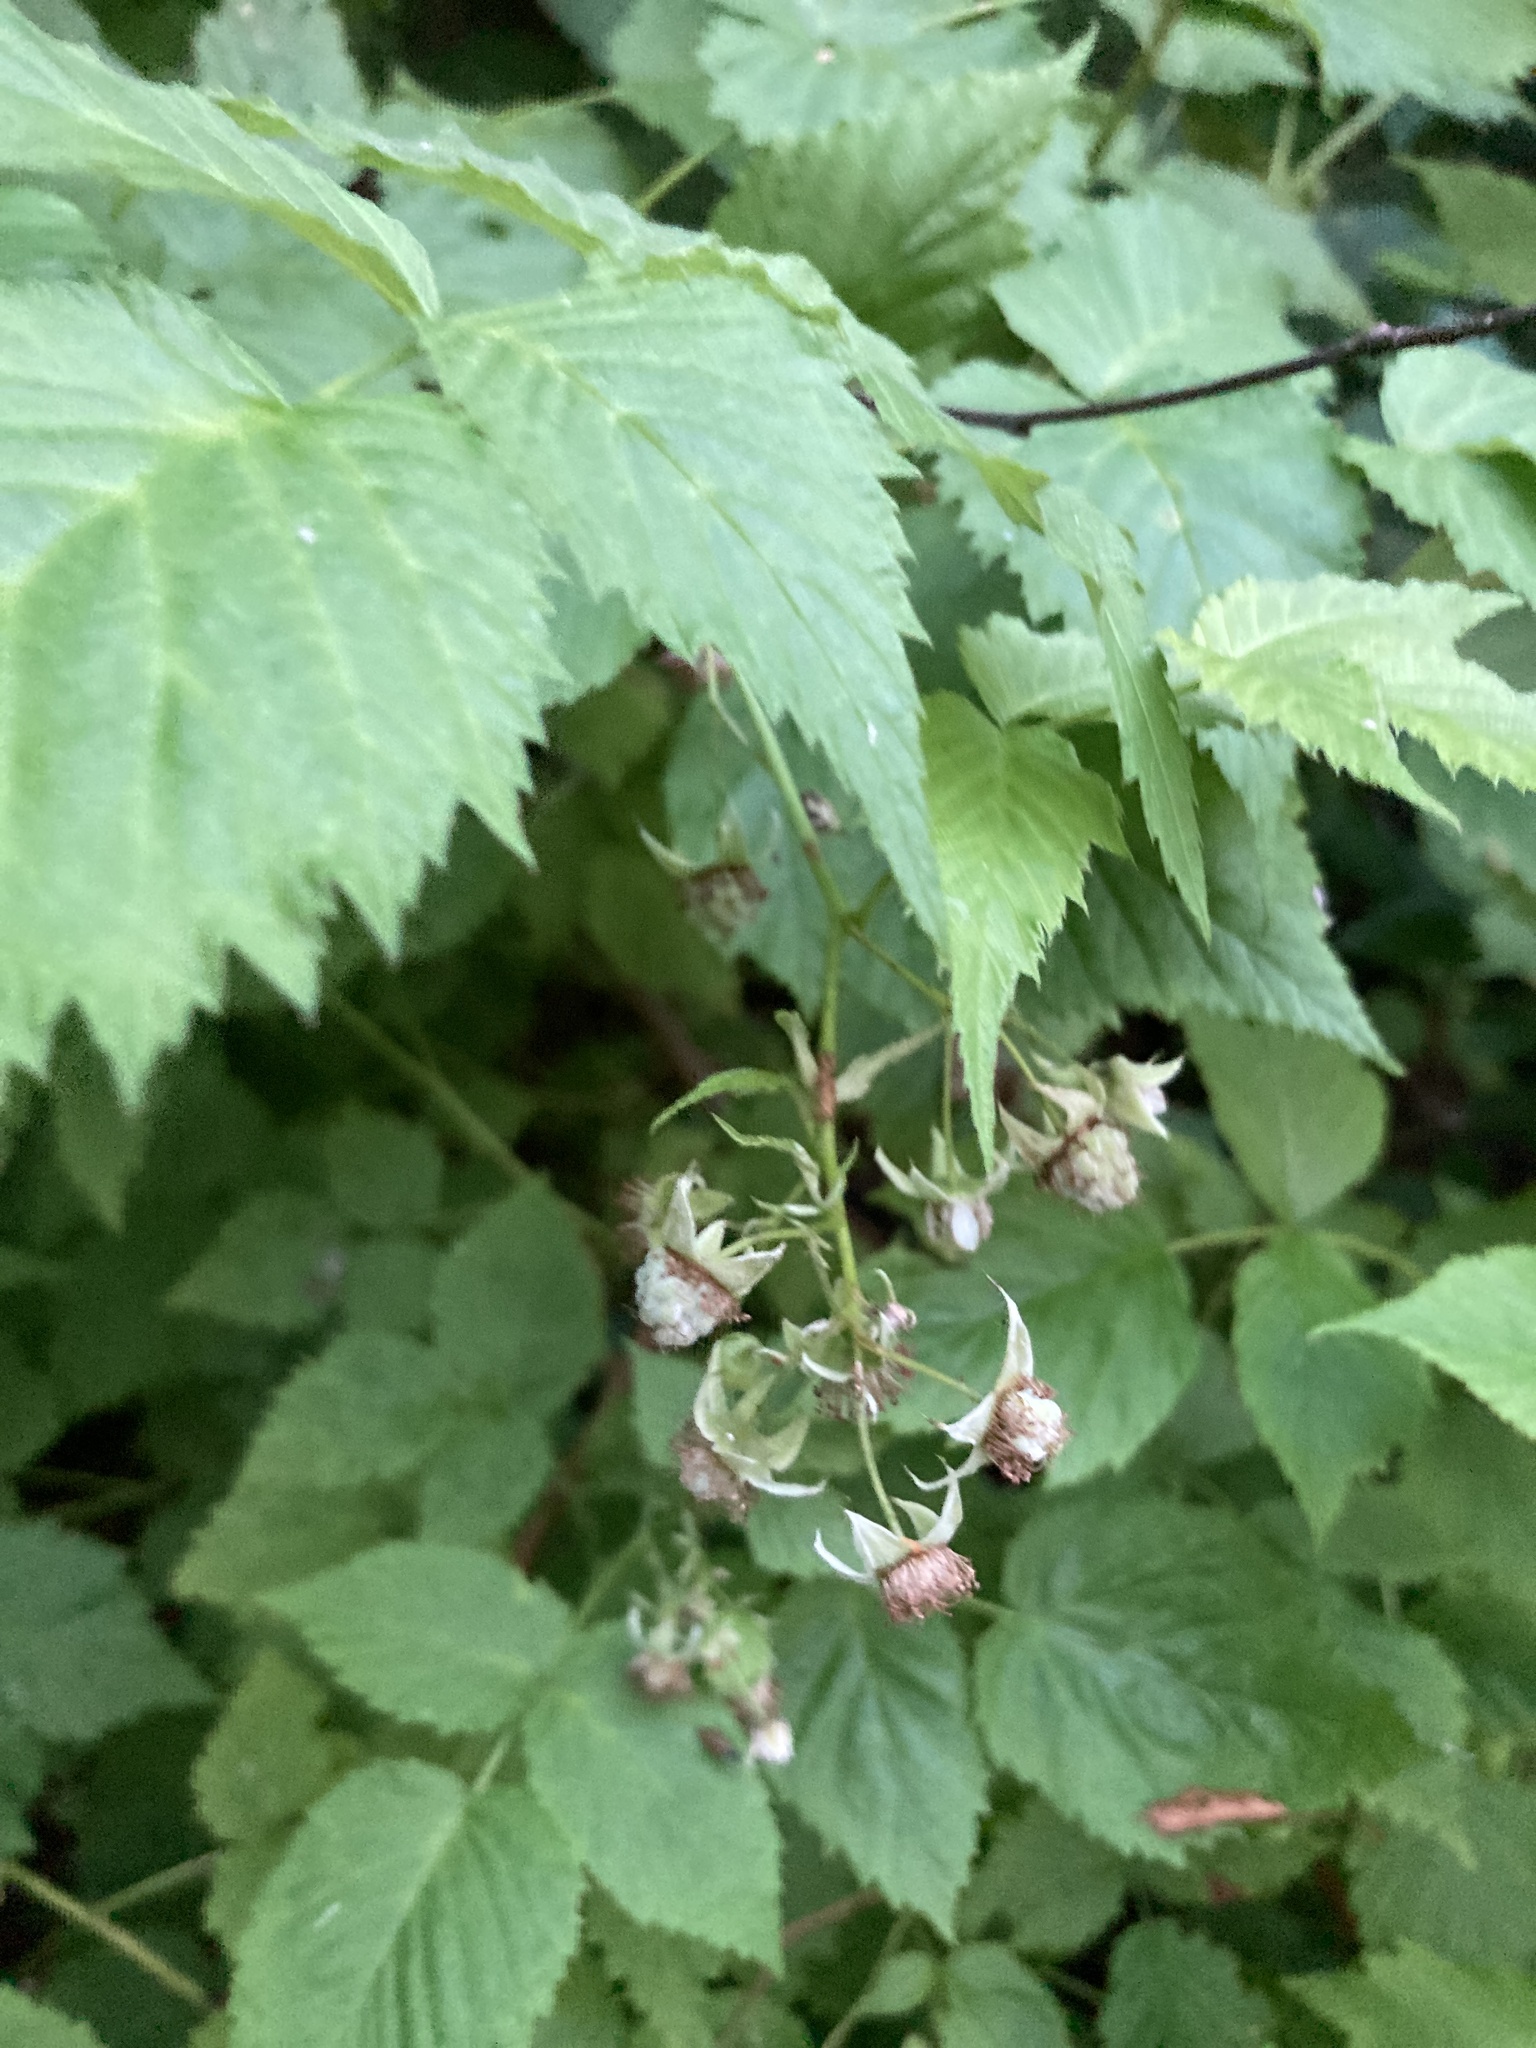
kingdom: Plantae
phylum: Tracheophyta
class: Magnoliopsida
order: Rosales
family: Rosaceae
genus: Rubus
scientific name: Rubus idaeus
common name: Raspberry
